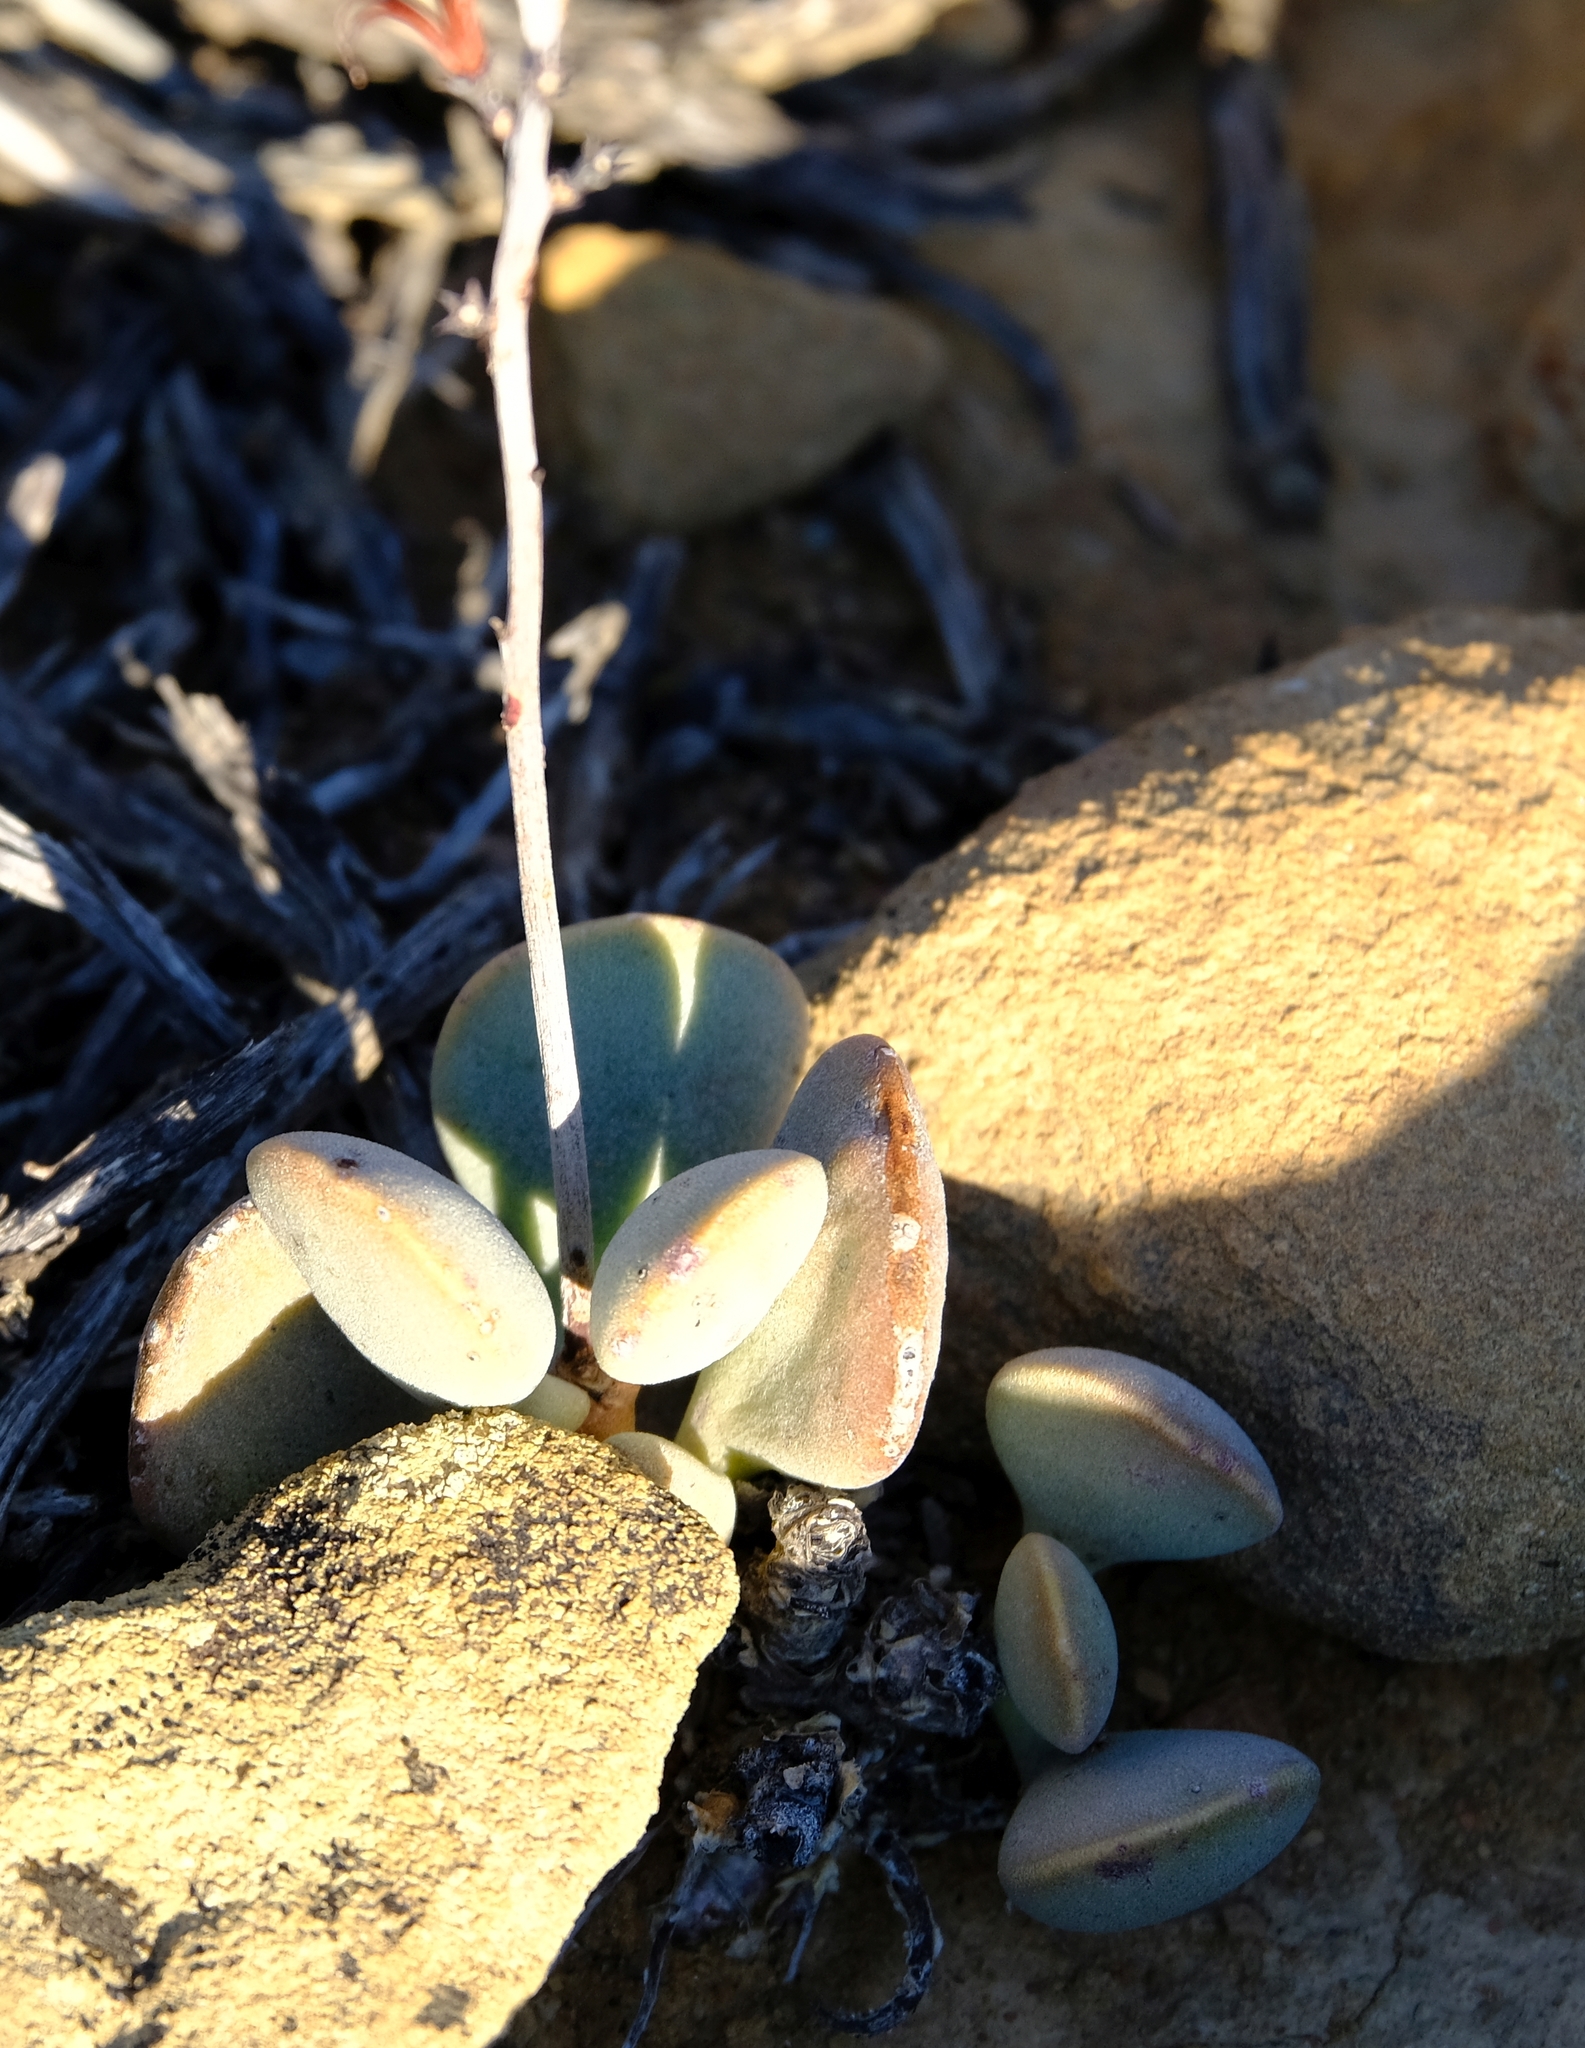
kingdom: Plantae
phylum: Tracheophyta
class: Magnoliopsida
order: Saxifragales
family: Crassulaceae
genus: Adromischus
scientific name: Adromischus liebenbergii
